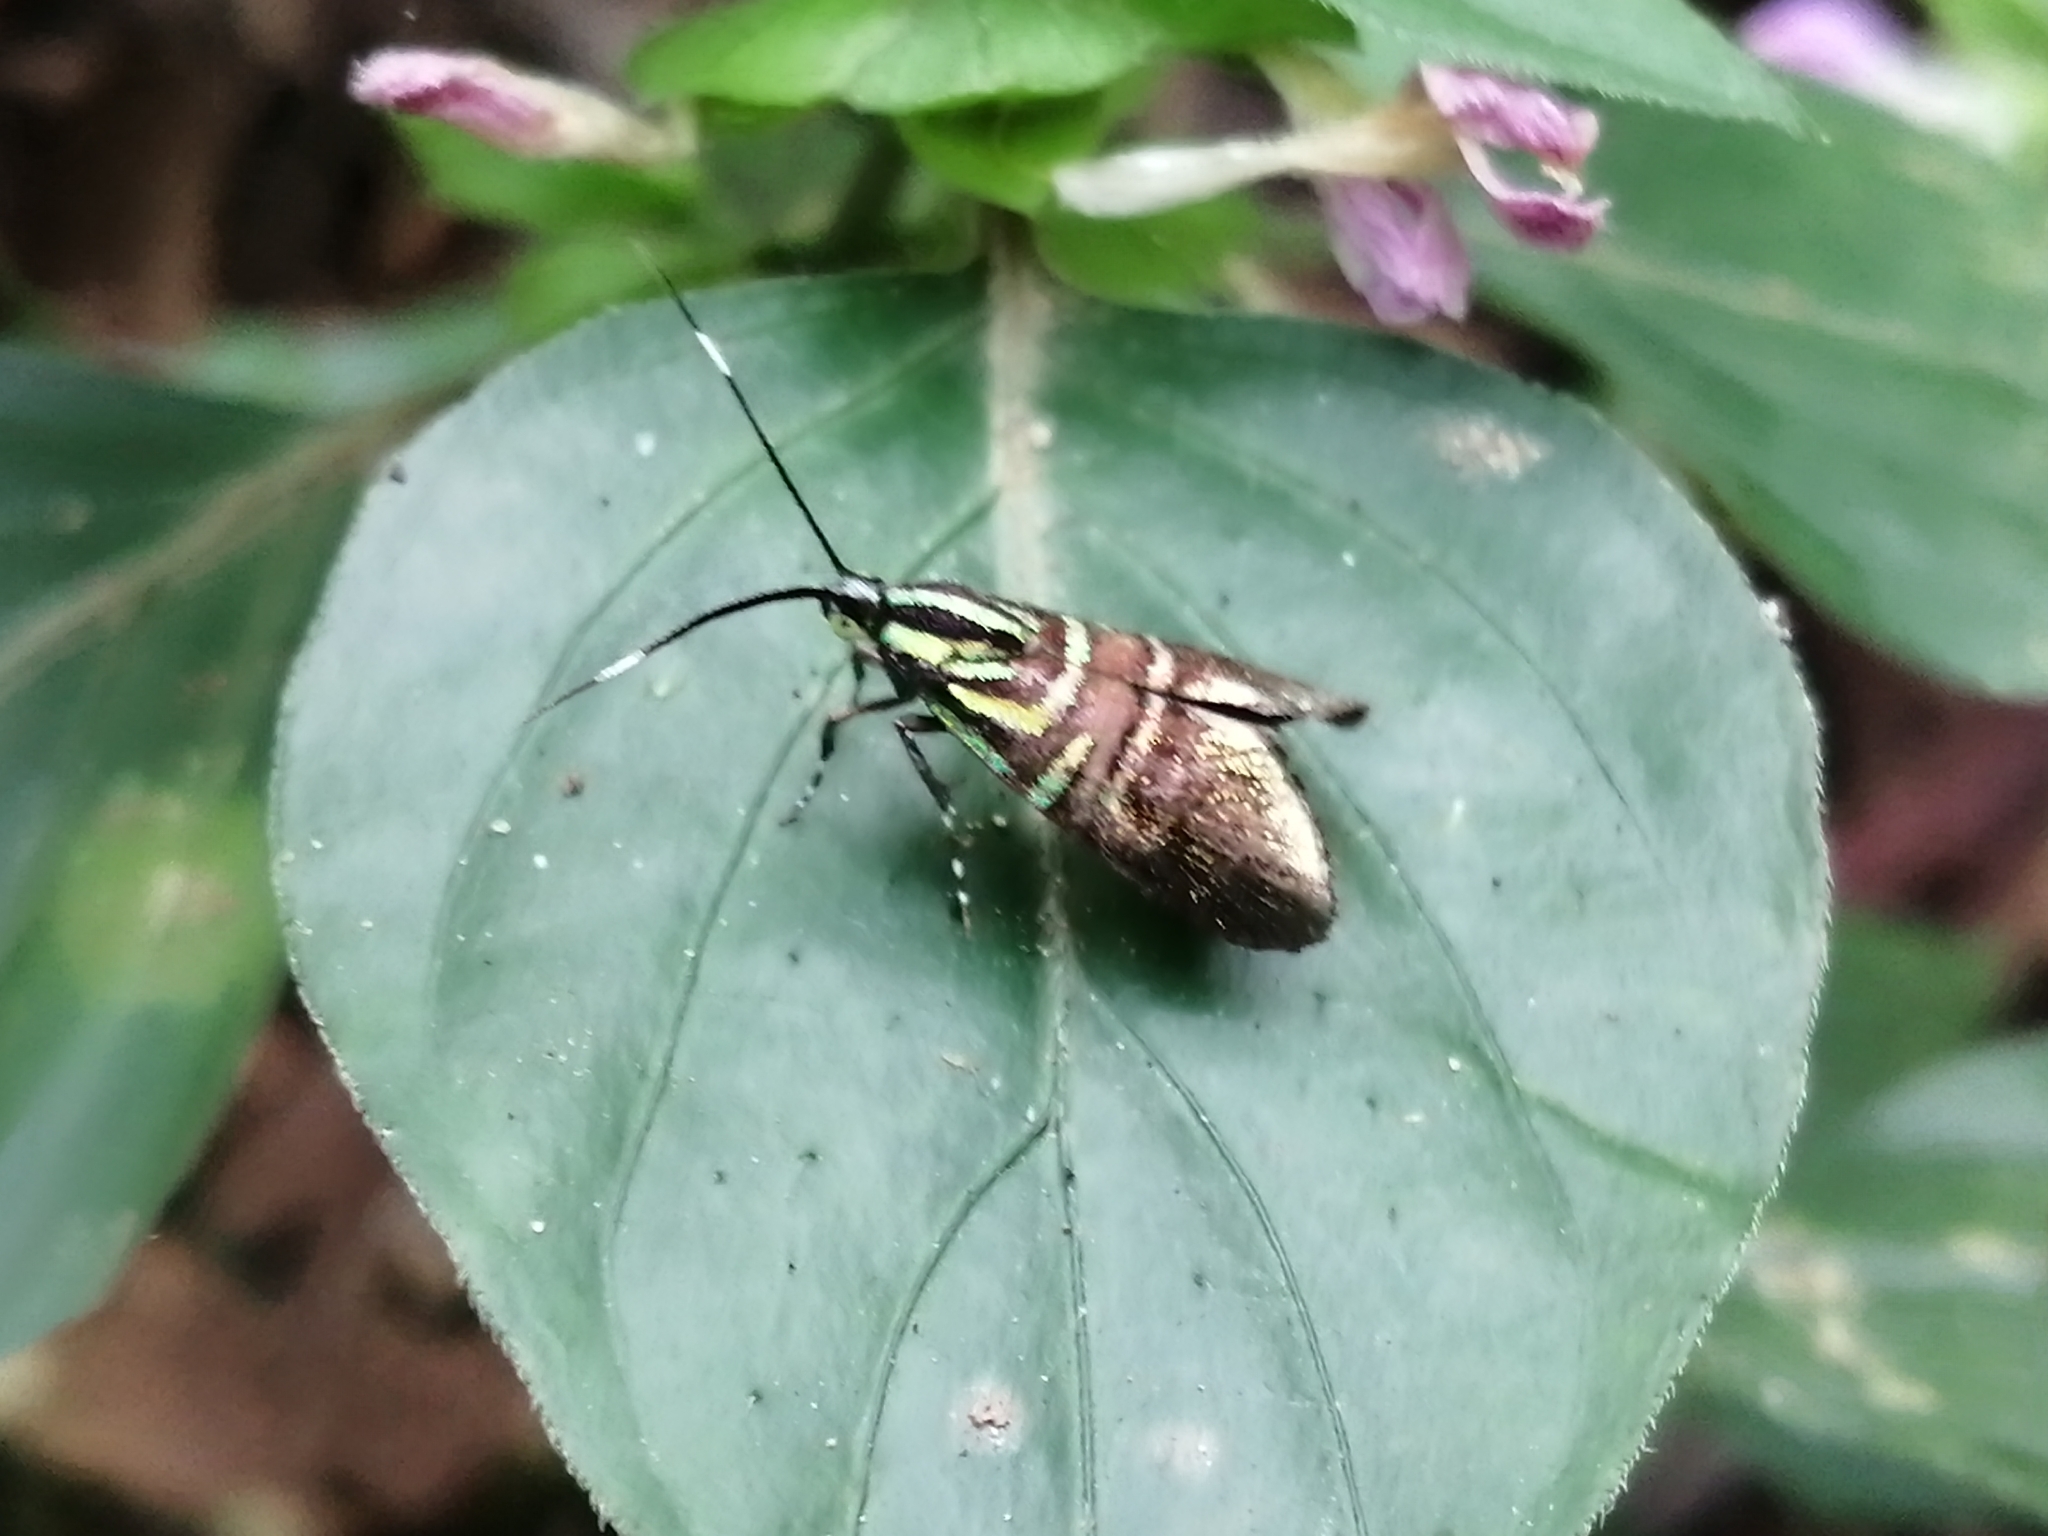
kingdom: Animalia
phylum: Arthropoda
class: Insecta
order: Lepidoptera
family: Choreutidae
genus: Saptha
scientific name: Saptha divitiosa
